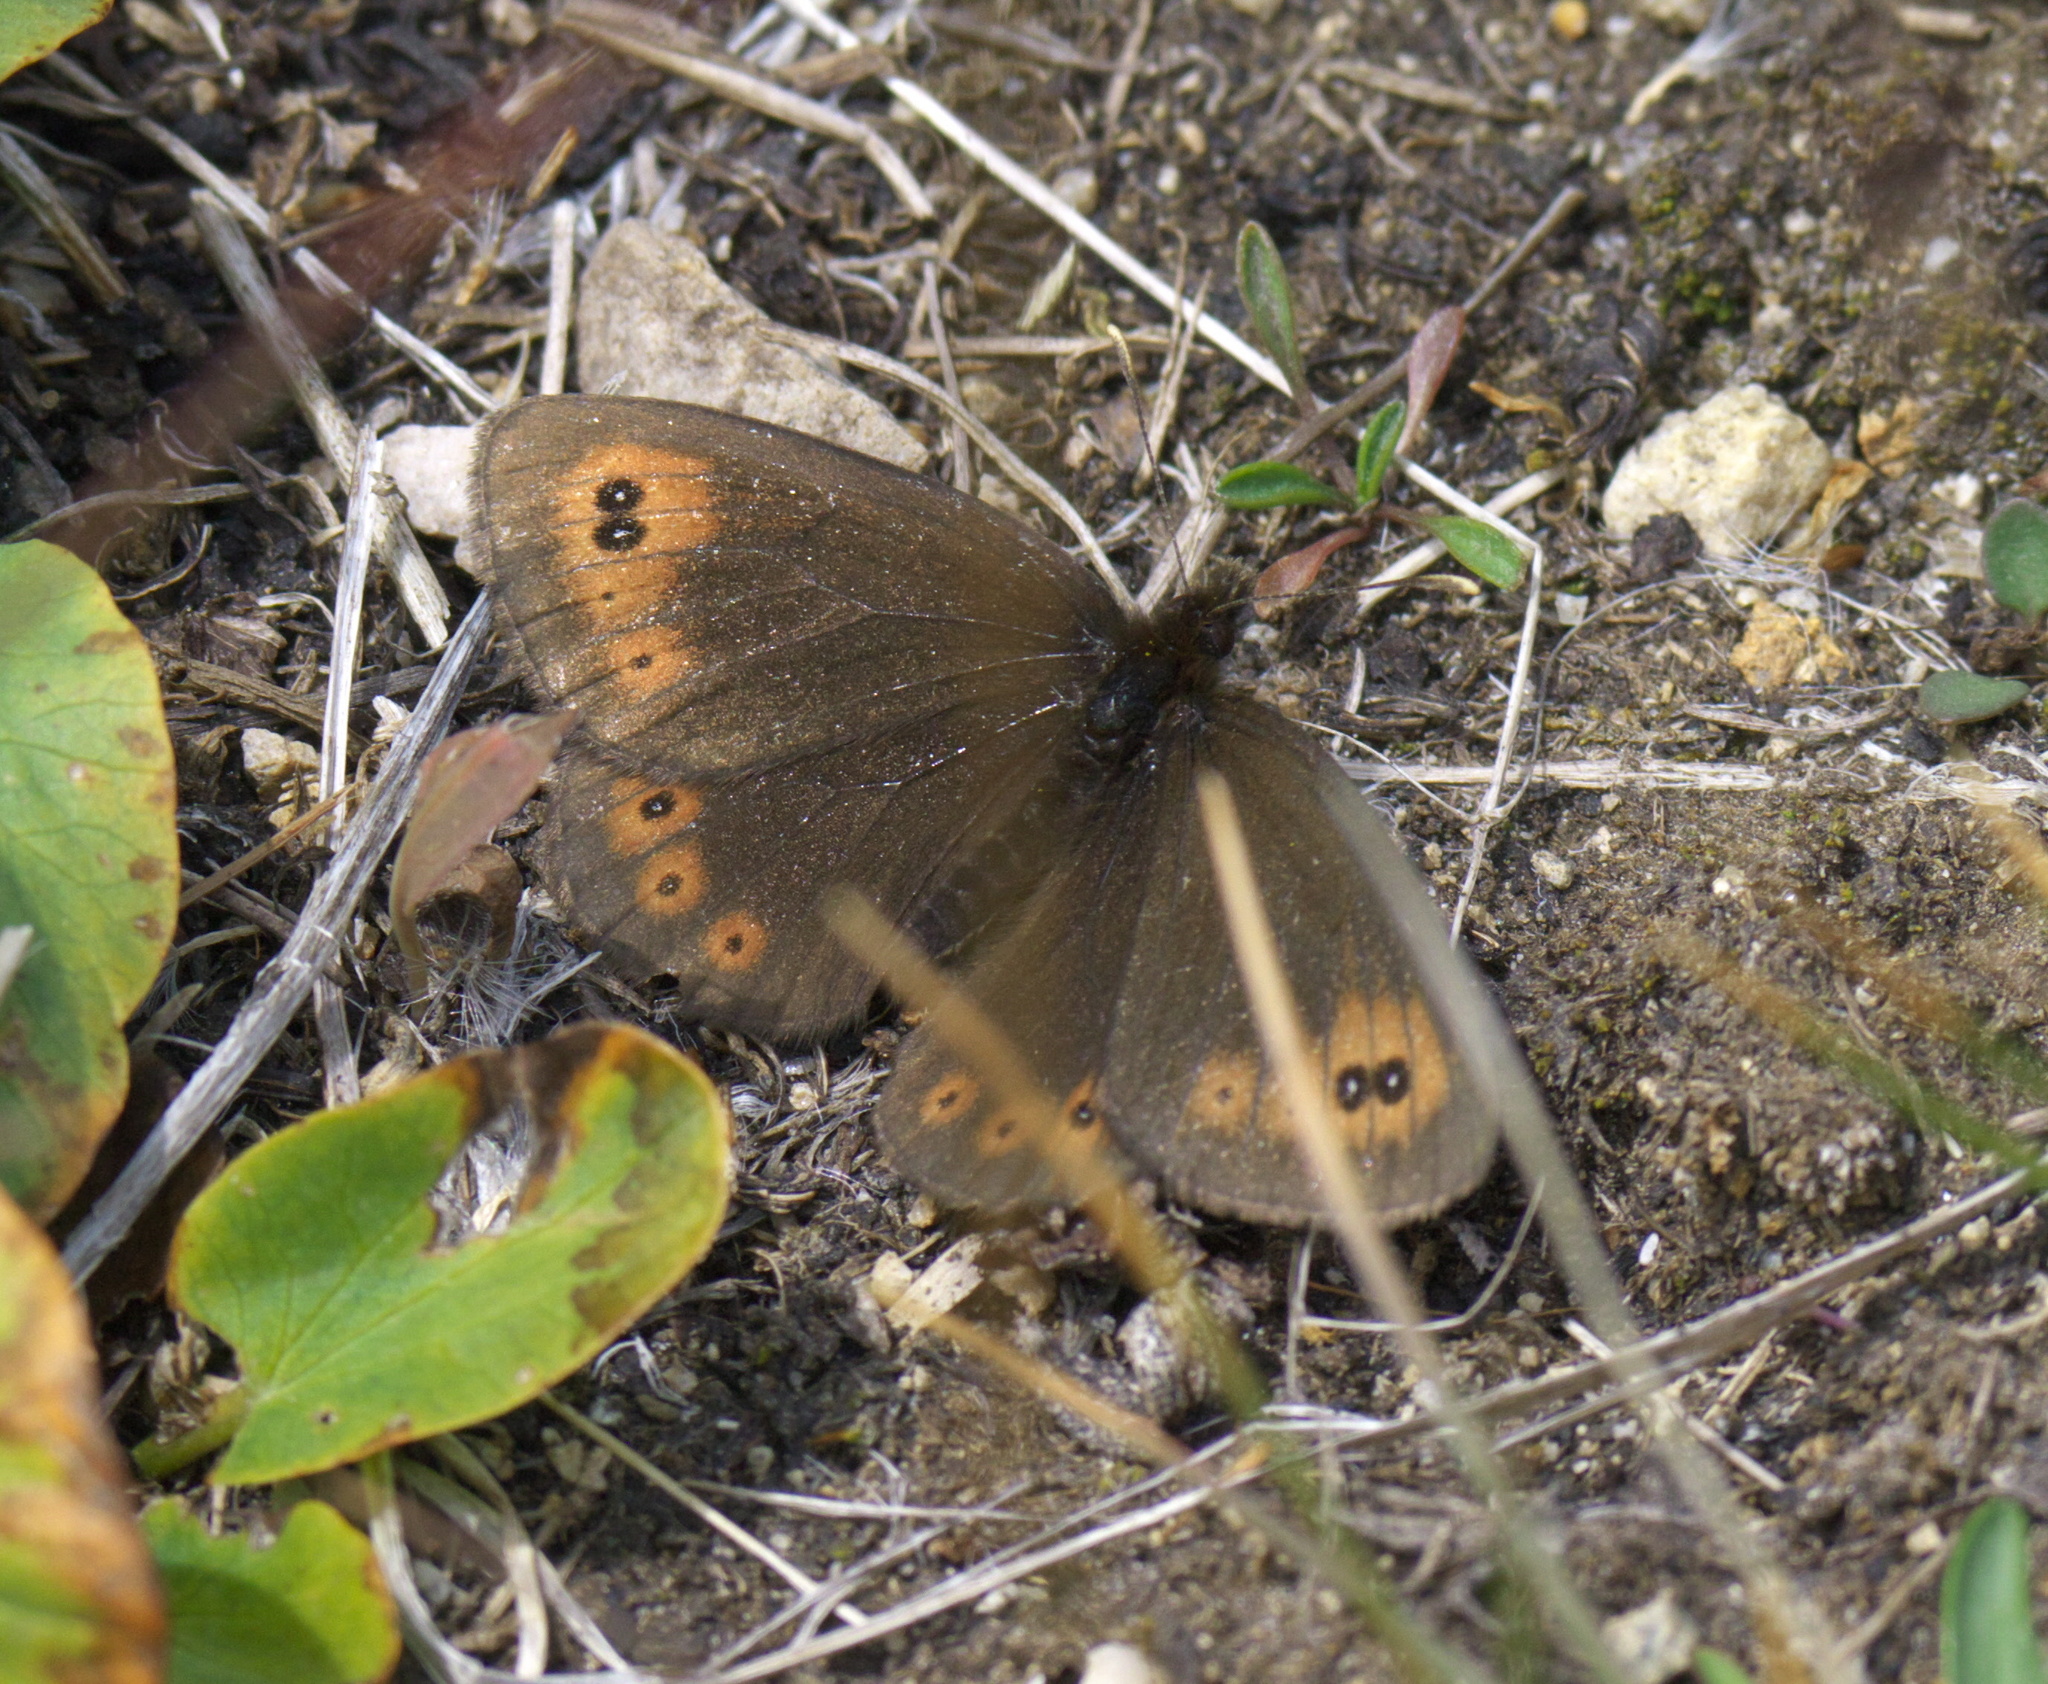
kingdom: Animalia
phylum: Arthropoda
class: Insecta
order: Lepidoptera
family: Nymphalidae
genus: Erebia
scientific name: Erebia epipsodea
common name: Common alpine
